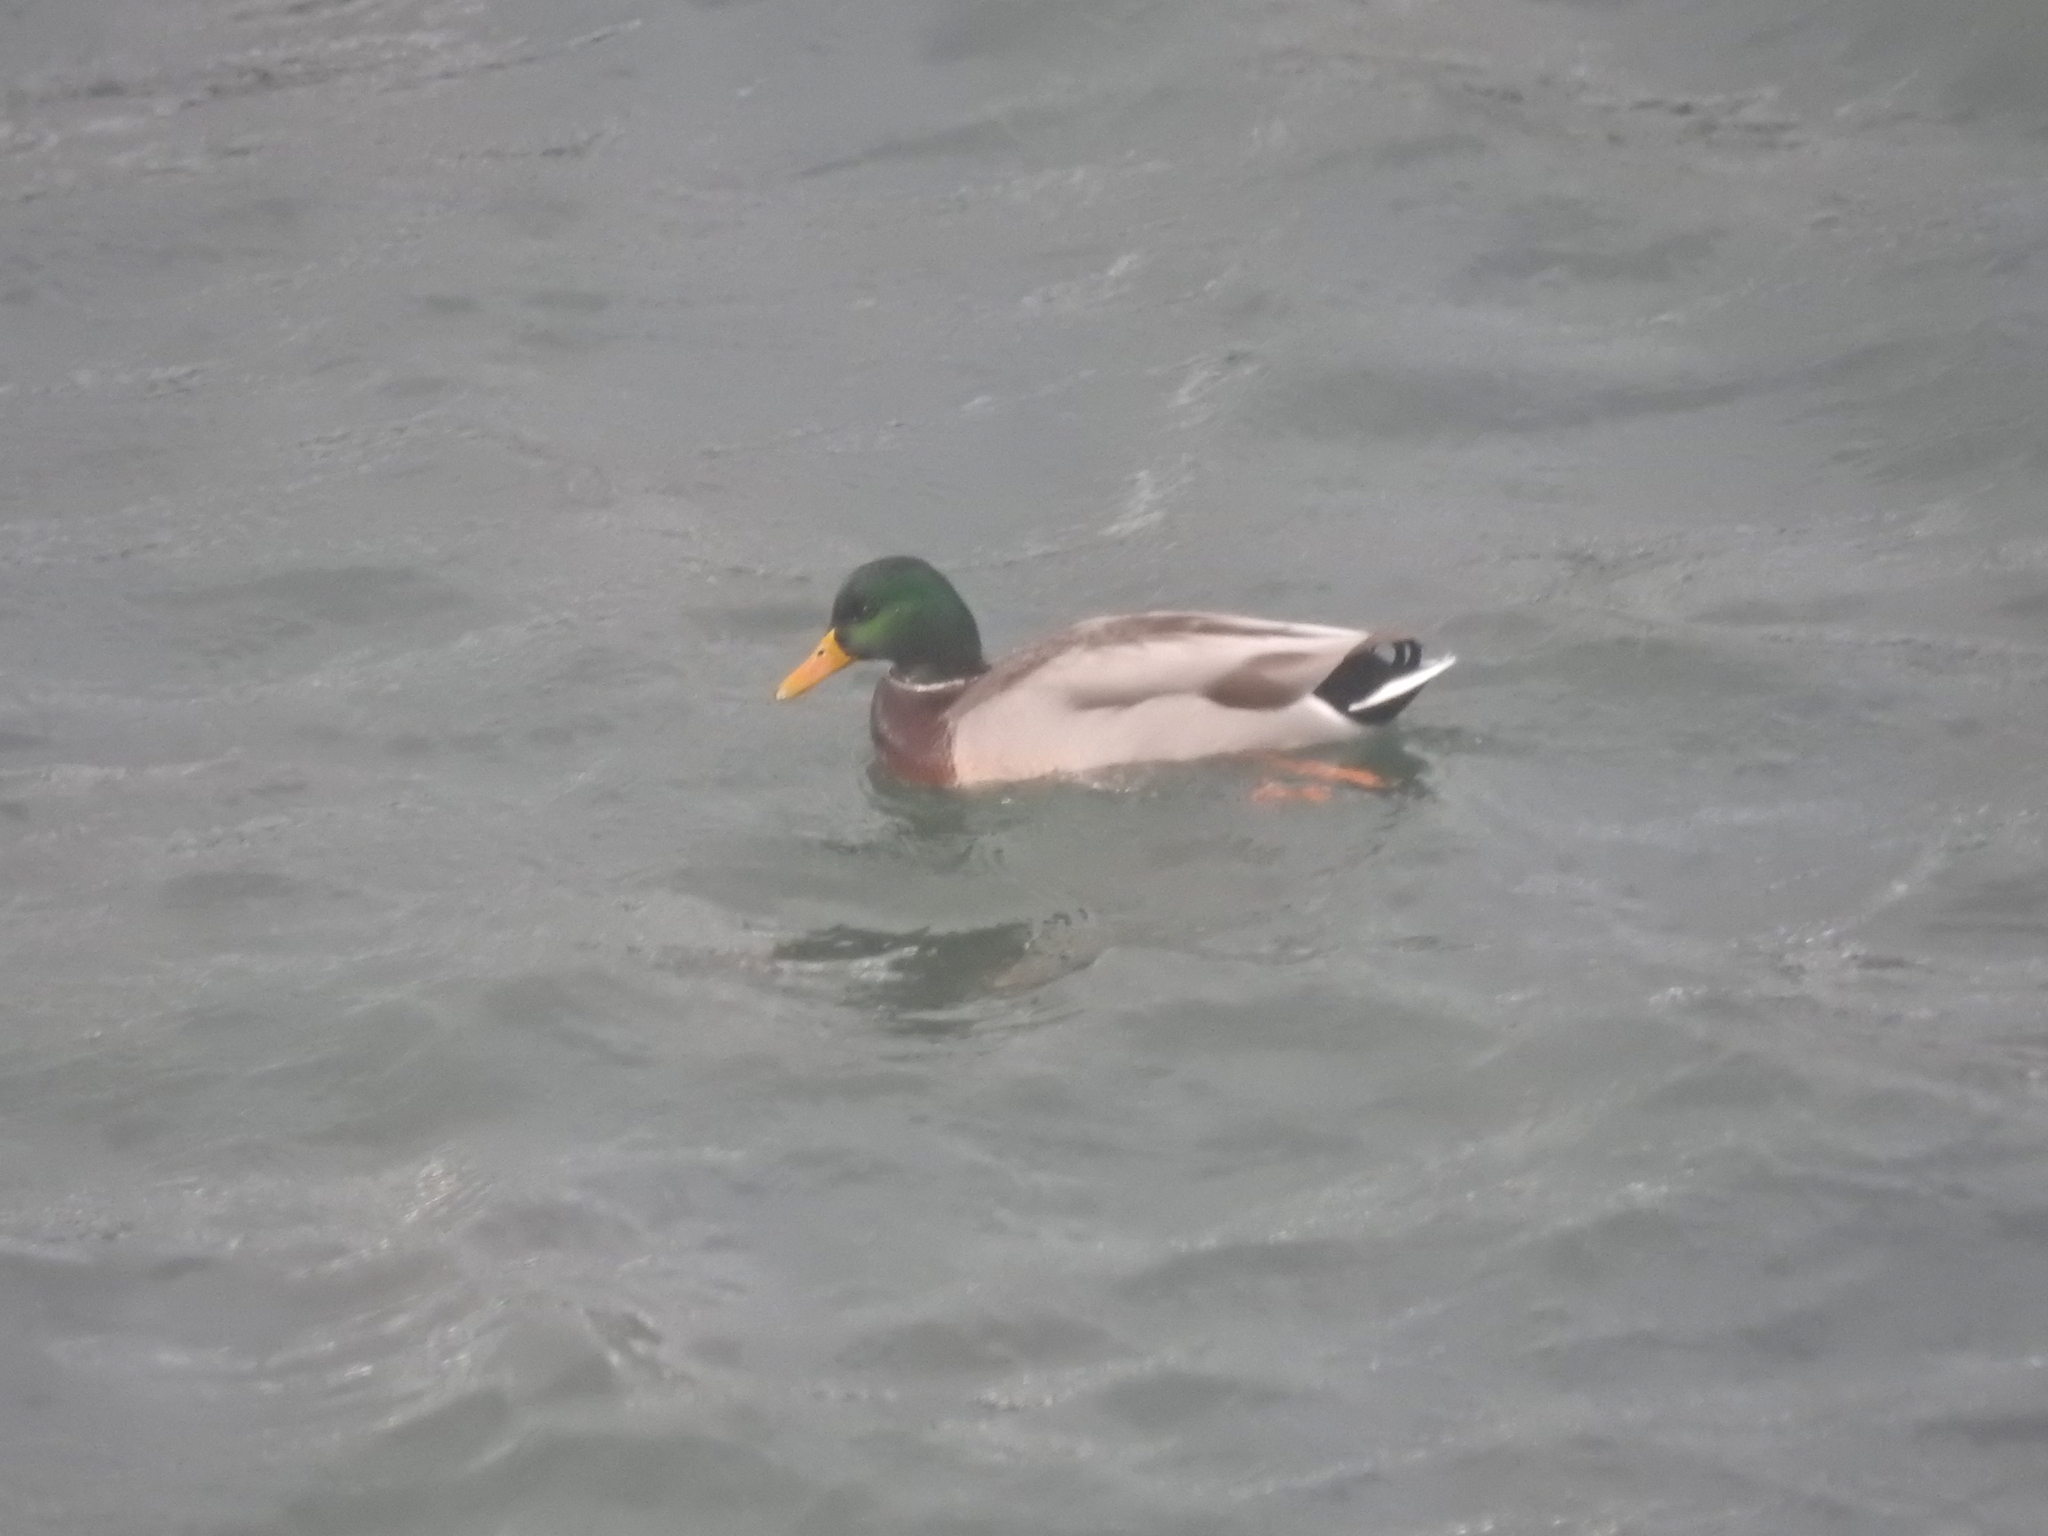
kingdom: Animalia
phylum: Chordata
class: Aves
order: Anseriformes
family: Anatidae
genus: Anas
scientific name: Anas platyrhynchos
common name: Mallard
